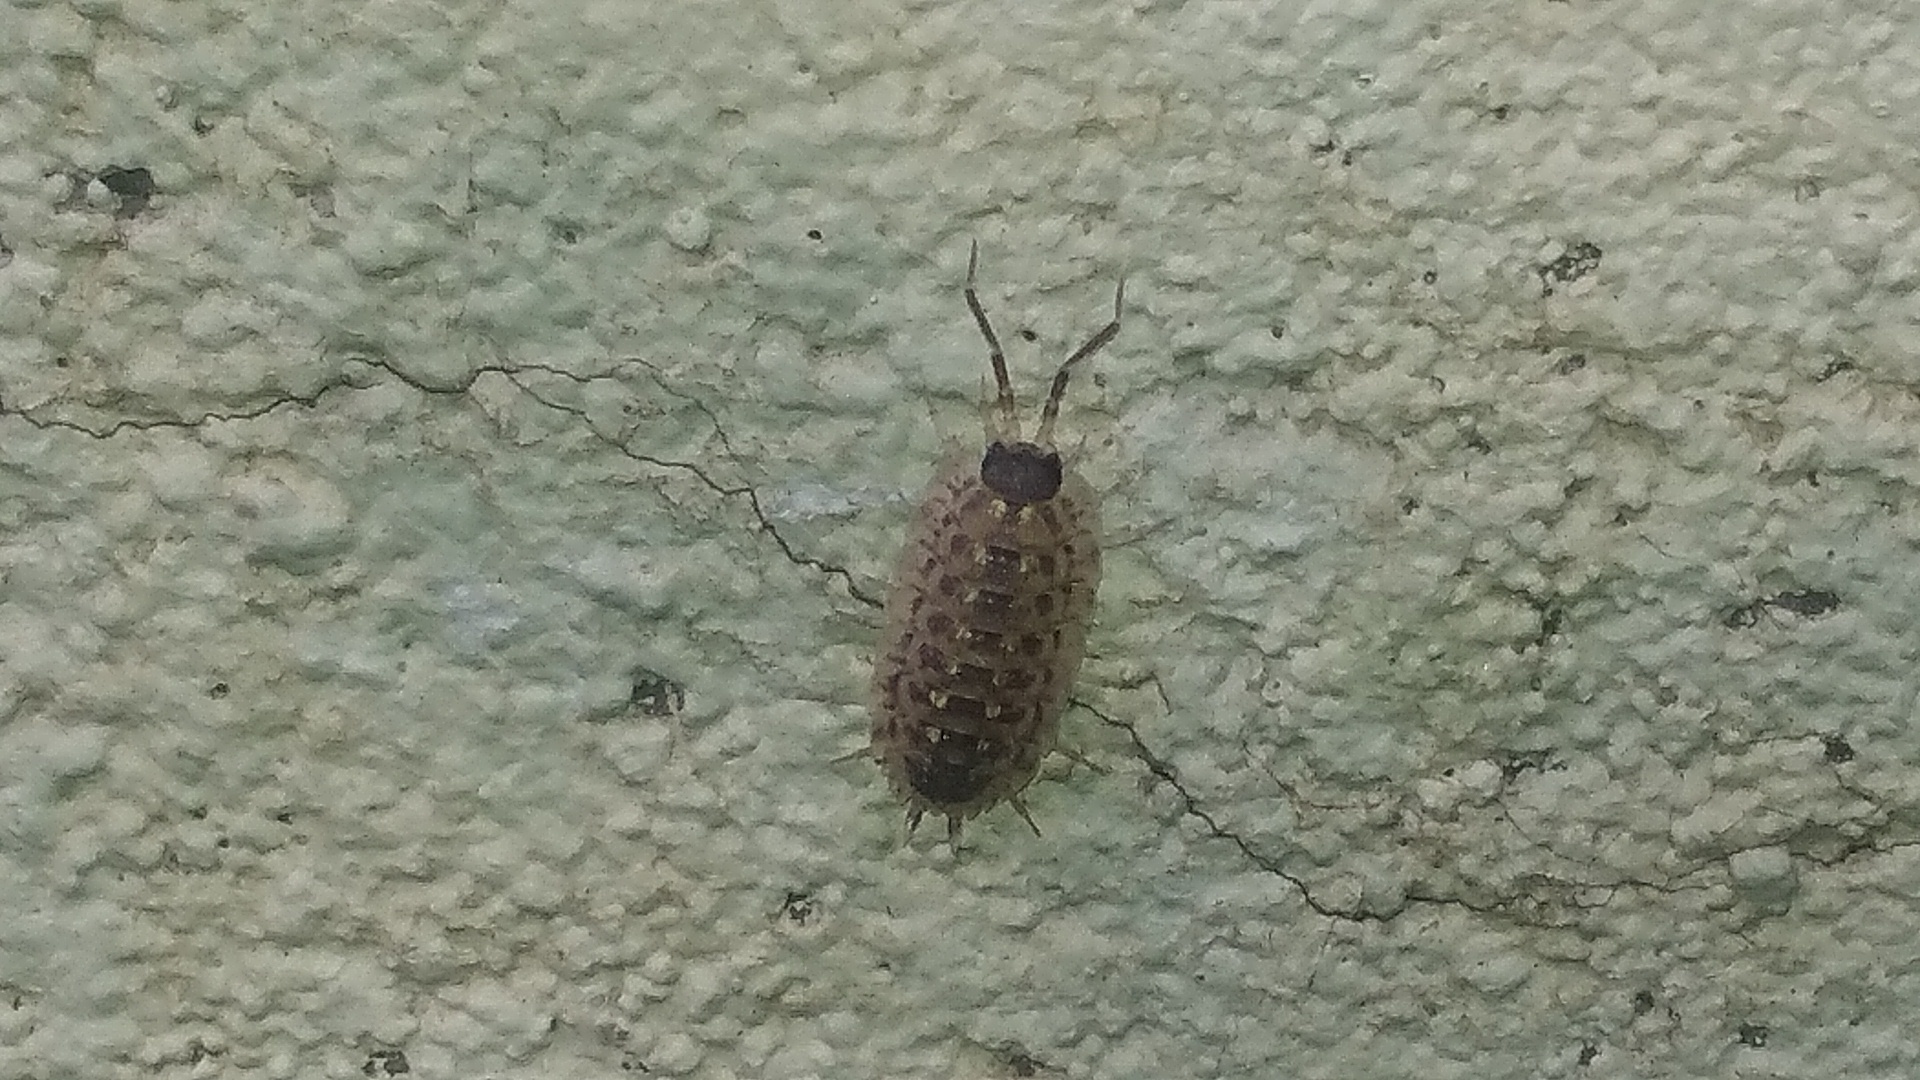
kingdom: Animalia
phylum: Arthropoda
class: Malacostraca
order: Isopoda
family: Porcellionidae
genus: Porcellio
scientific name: Porcellio spinicornis
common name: Painted woodlouse
